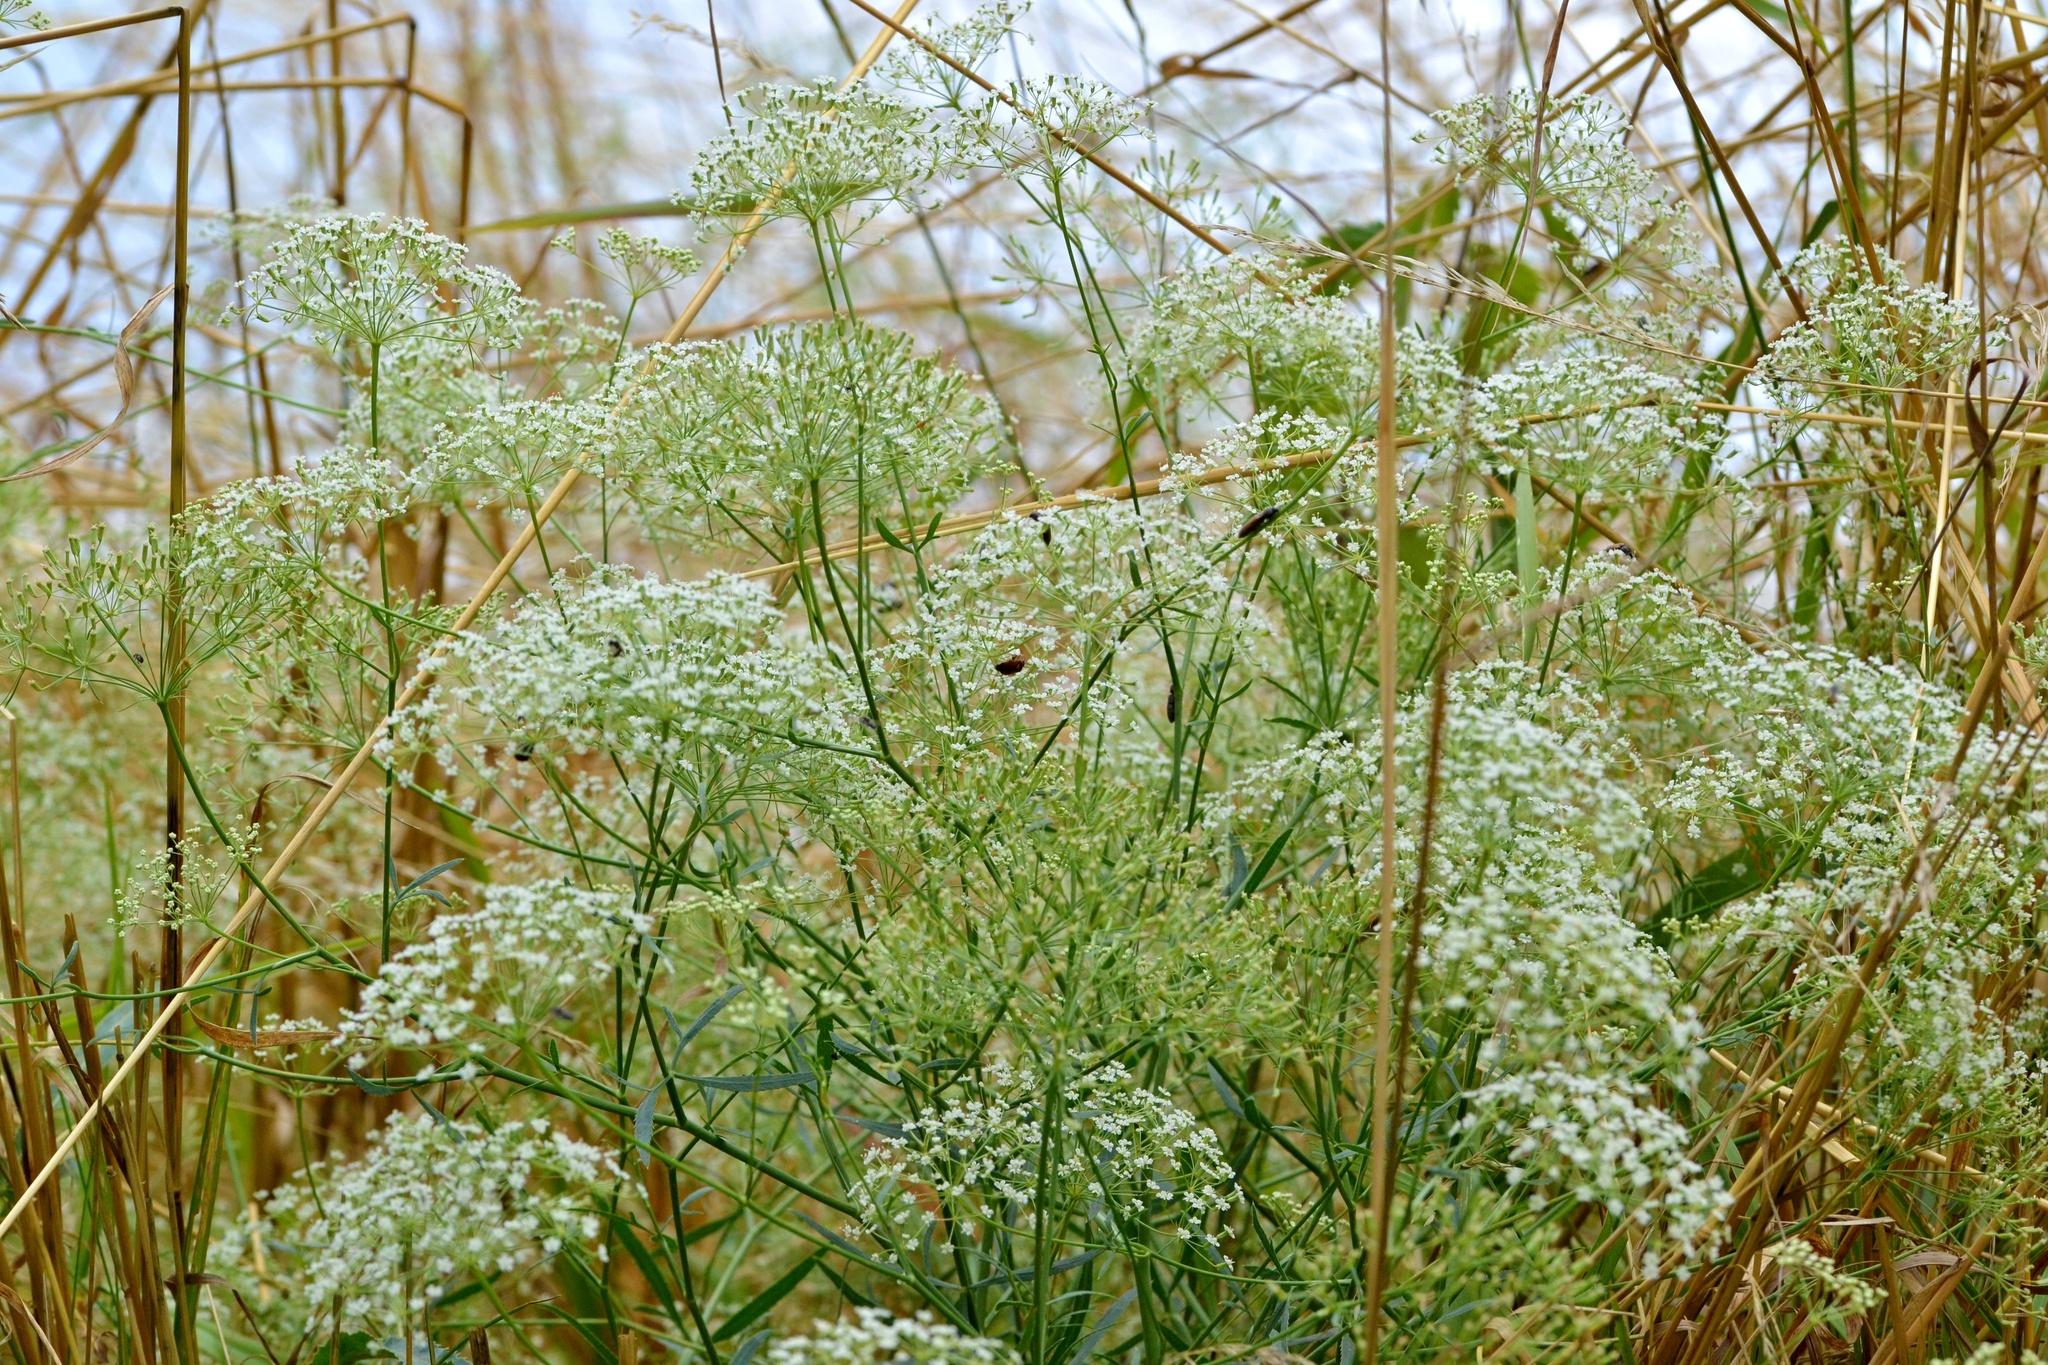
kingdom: Plantae
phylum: Tracheophyta
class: Magnoliopsida
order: Apiales
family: Apiaceae
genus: Falcaria
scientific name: Falcaria vulgaris
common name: Longleaf
